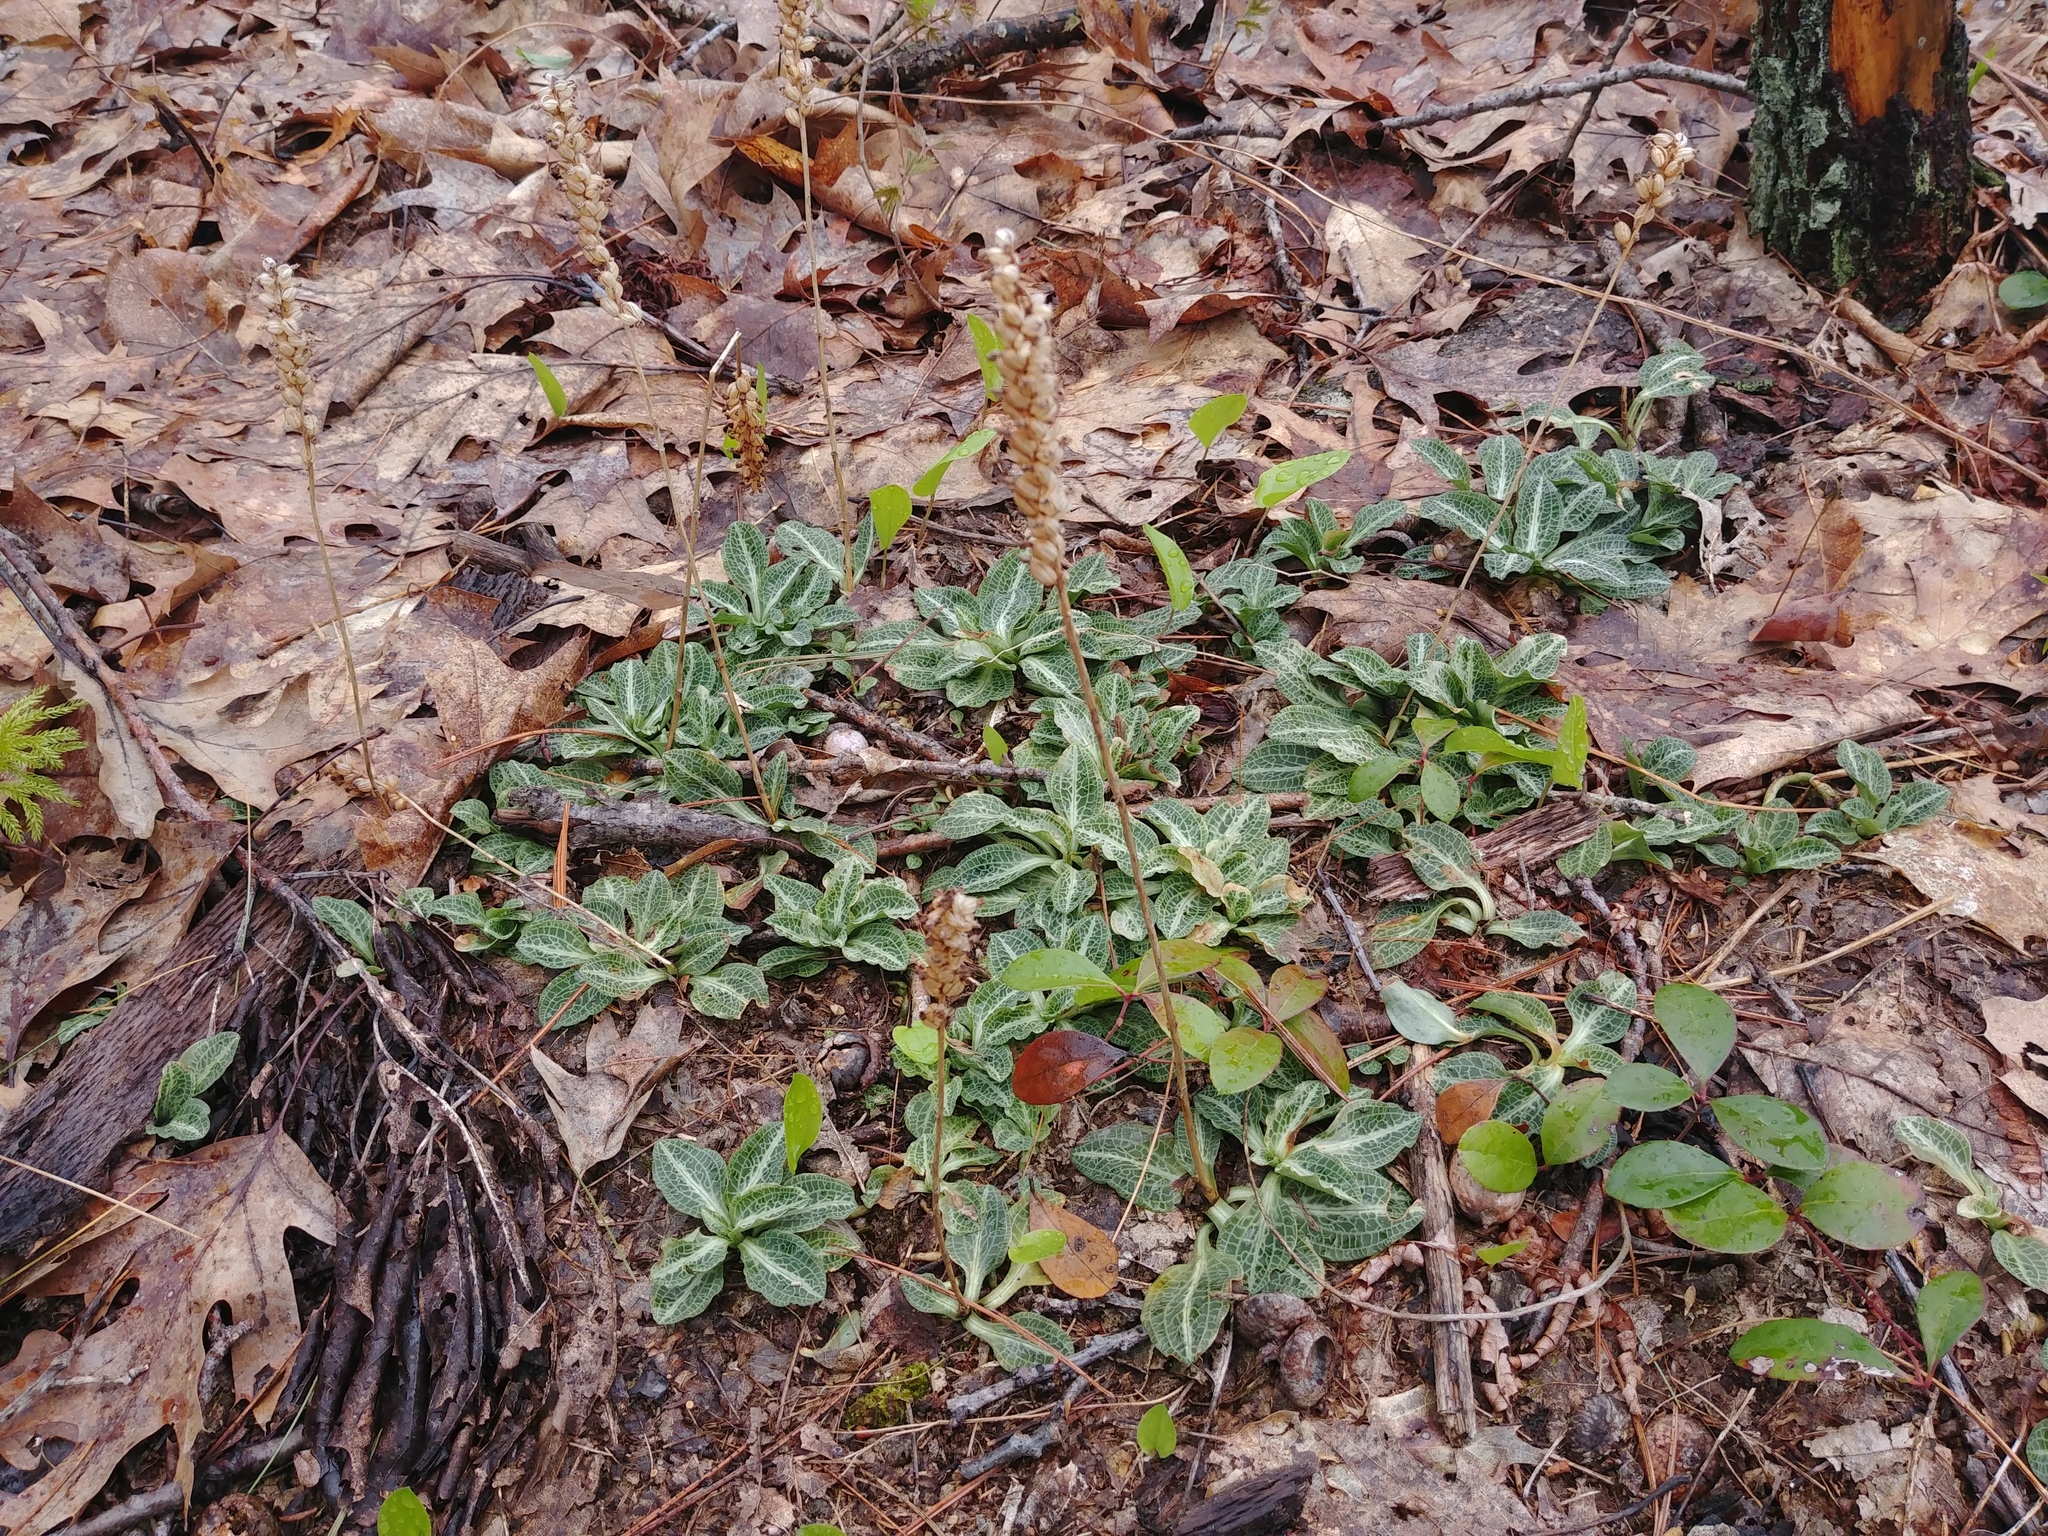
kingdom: Plantae
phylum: Tracheophyta
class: Liliopsida
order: Asparagales
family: Orchidaceae
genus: Goodyera
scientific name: Goodyera pubescens
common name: Downy rattlesnake-plantain
